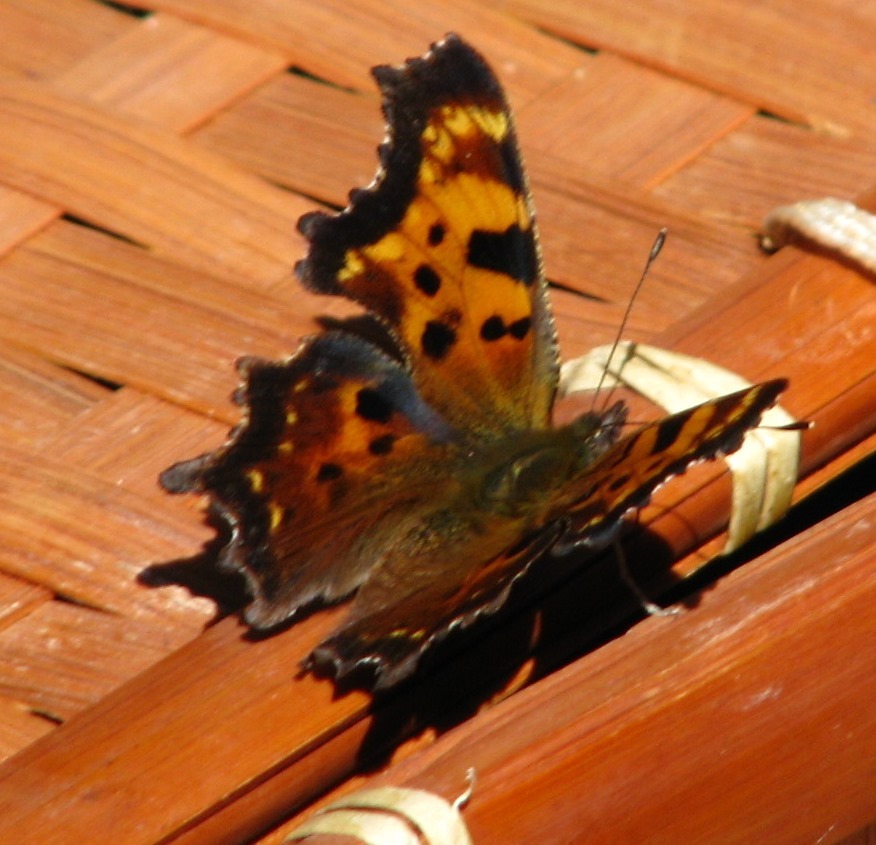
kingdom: Animalia
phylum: Arthropoda
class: Insecta
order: Lepidoptera
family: Nymphalidae
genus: Polygonia
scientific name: Polygonia faunus
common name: Green comma
